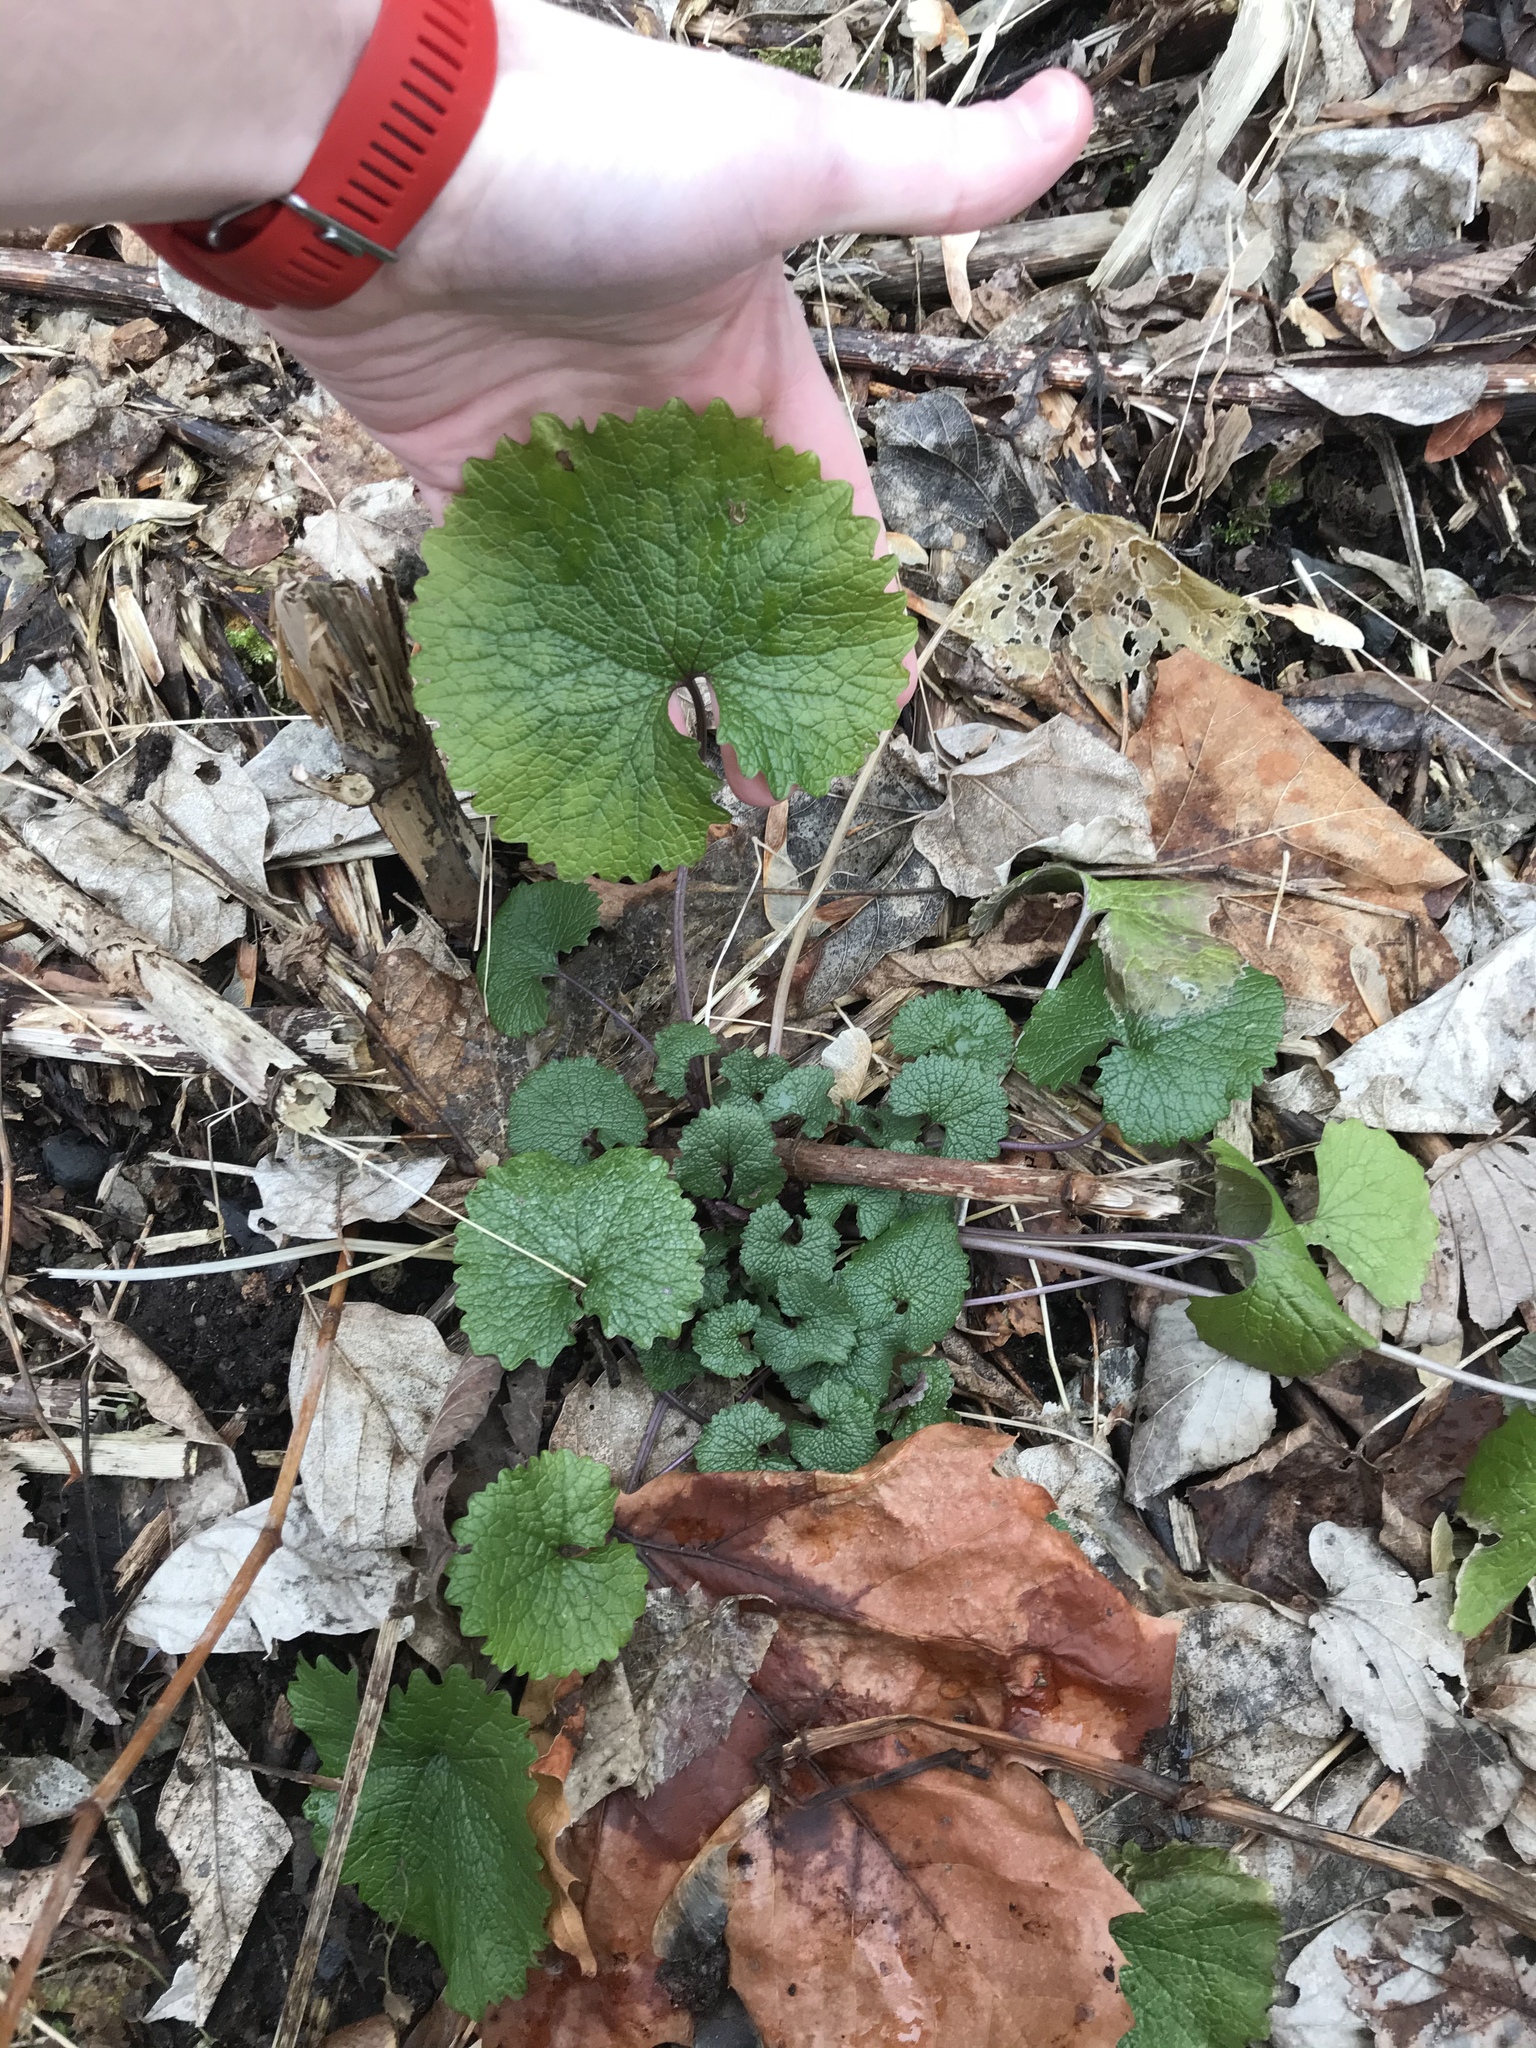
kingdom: Plantae
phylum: Tracheophyta
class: Magnoliopsida
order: Brassicales
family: Brassicaceae
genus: Alliaria
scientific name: Alliaria petiolata
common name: Garlic mustard
